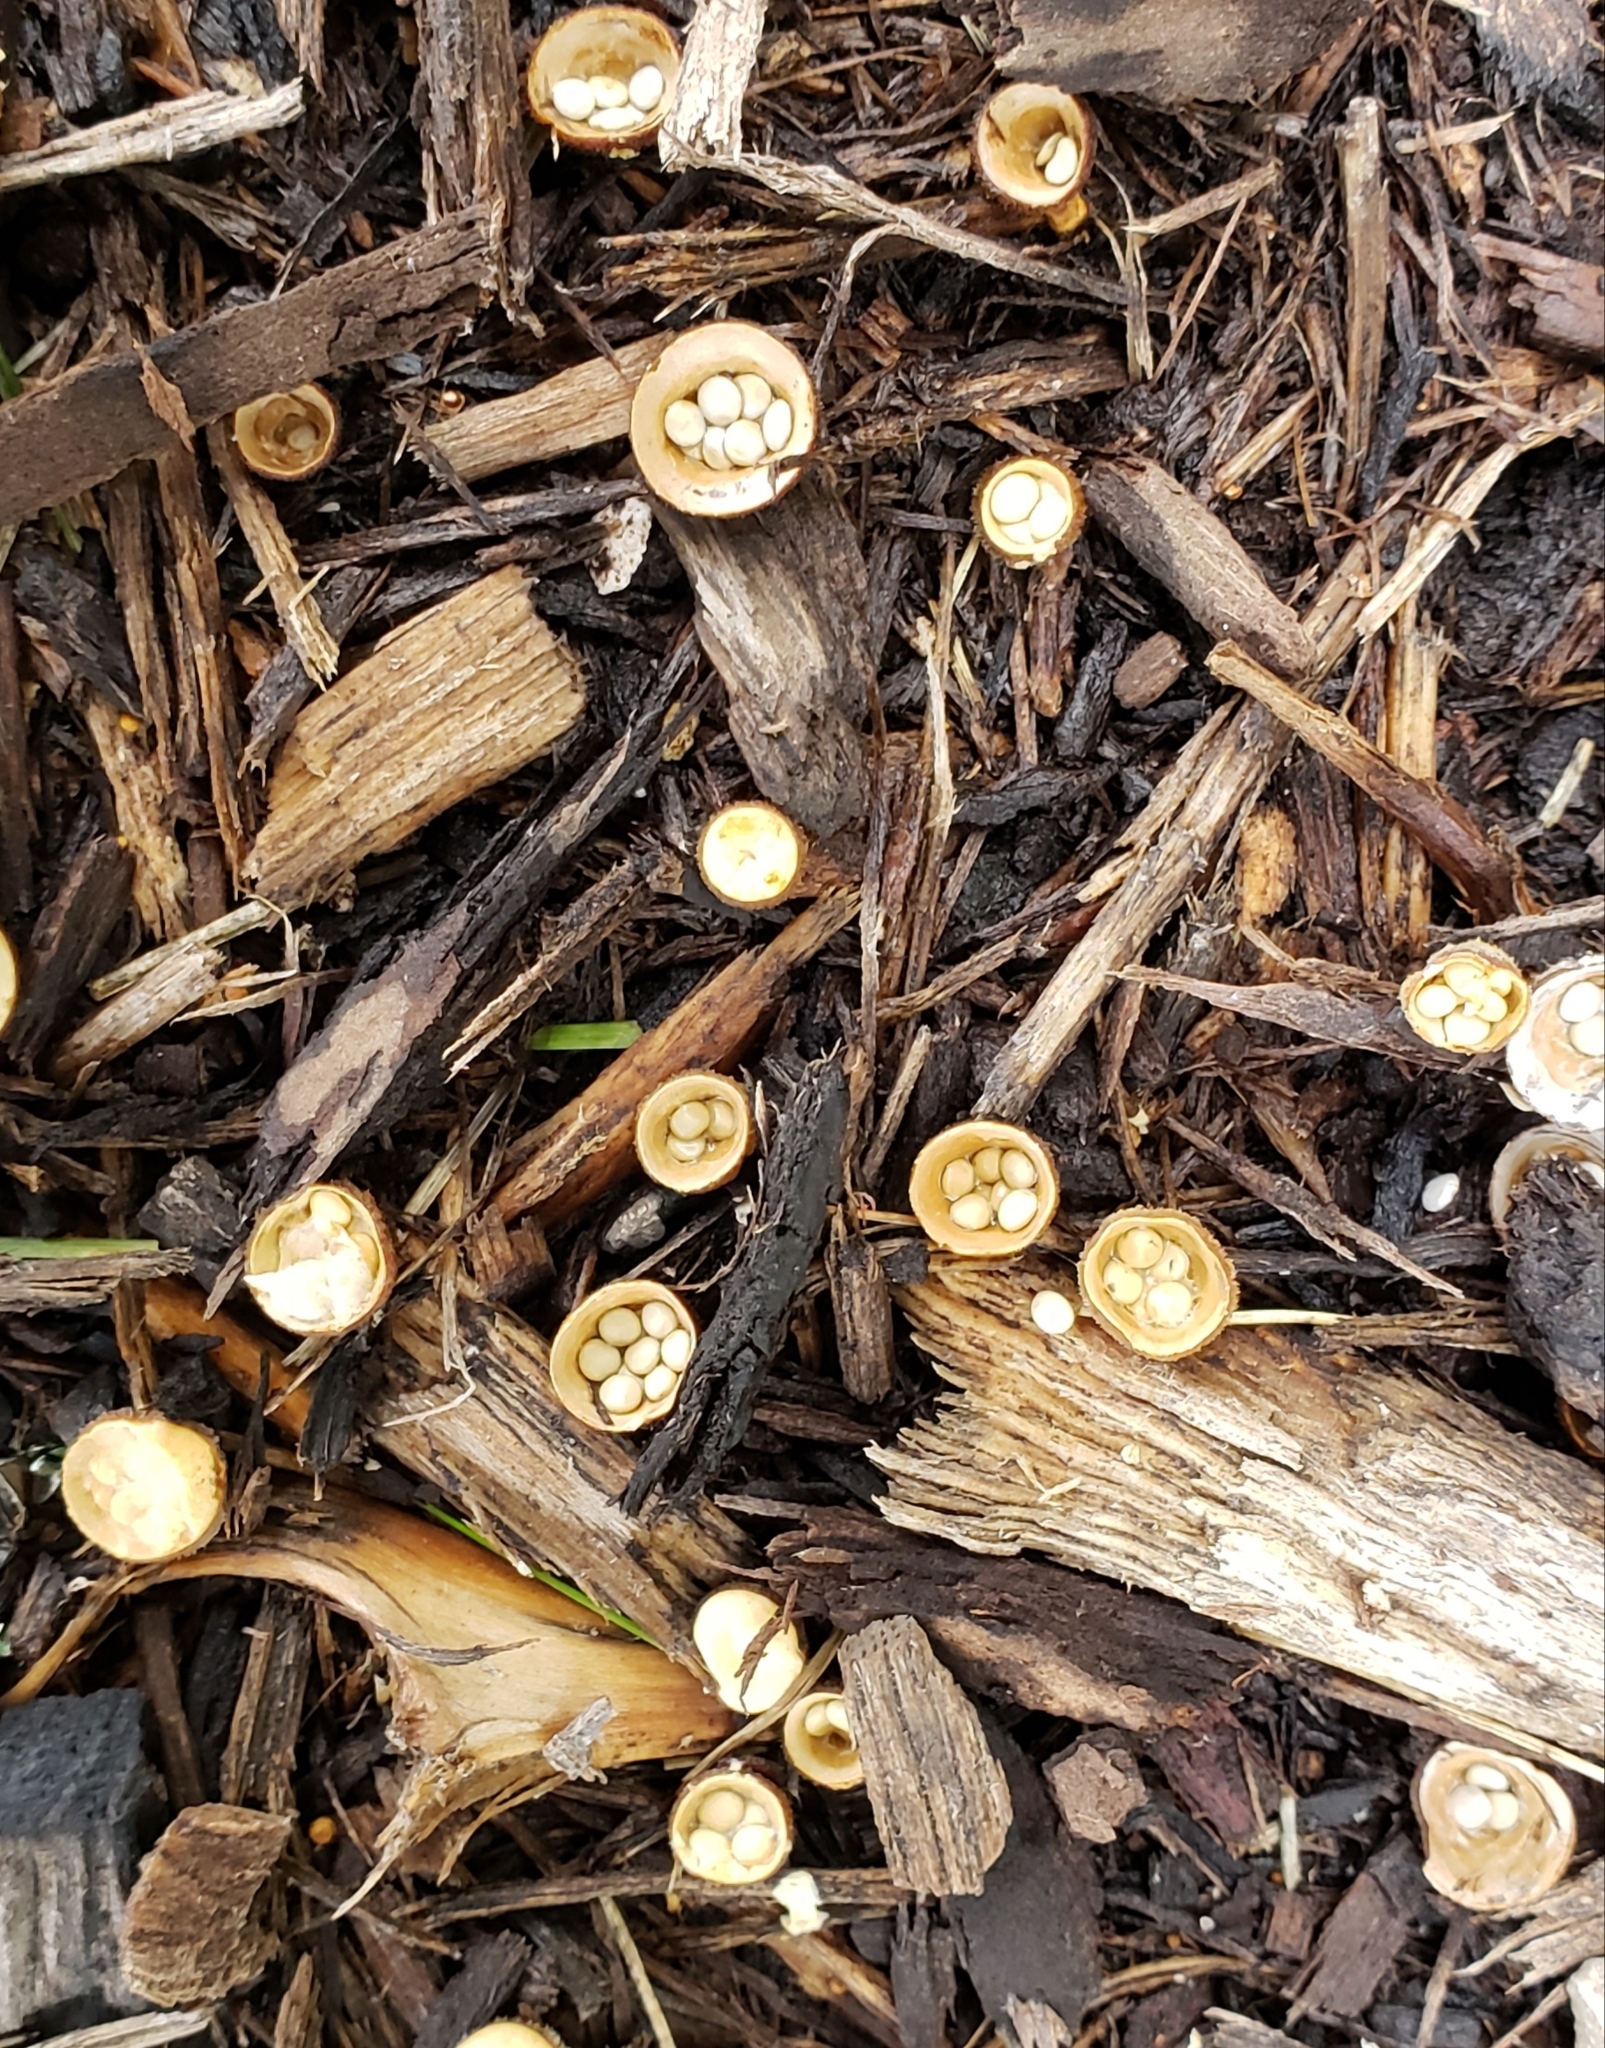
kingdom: Fungi
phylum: Basidiomycota
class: Agaricomycetes
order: Agaricales
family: Nidulariaceae
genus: Crucibulum
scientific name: Crucibulum laeve
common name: Common bird's nest
